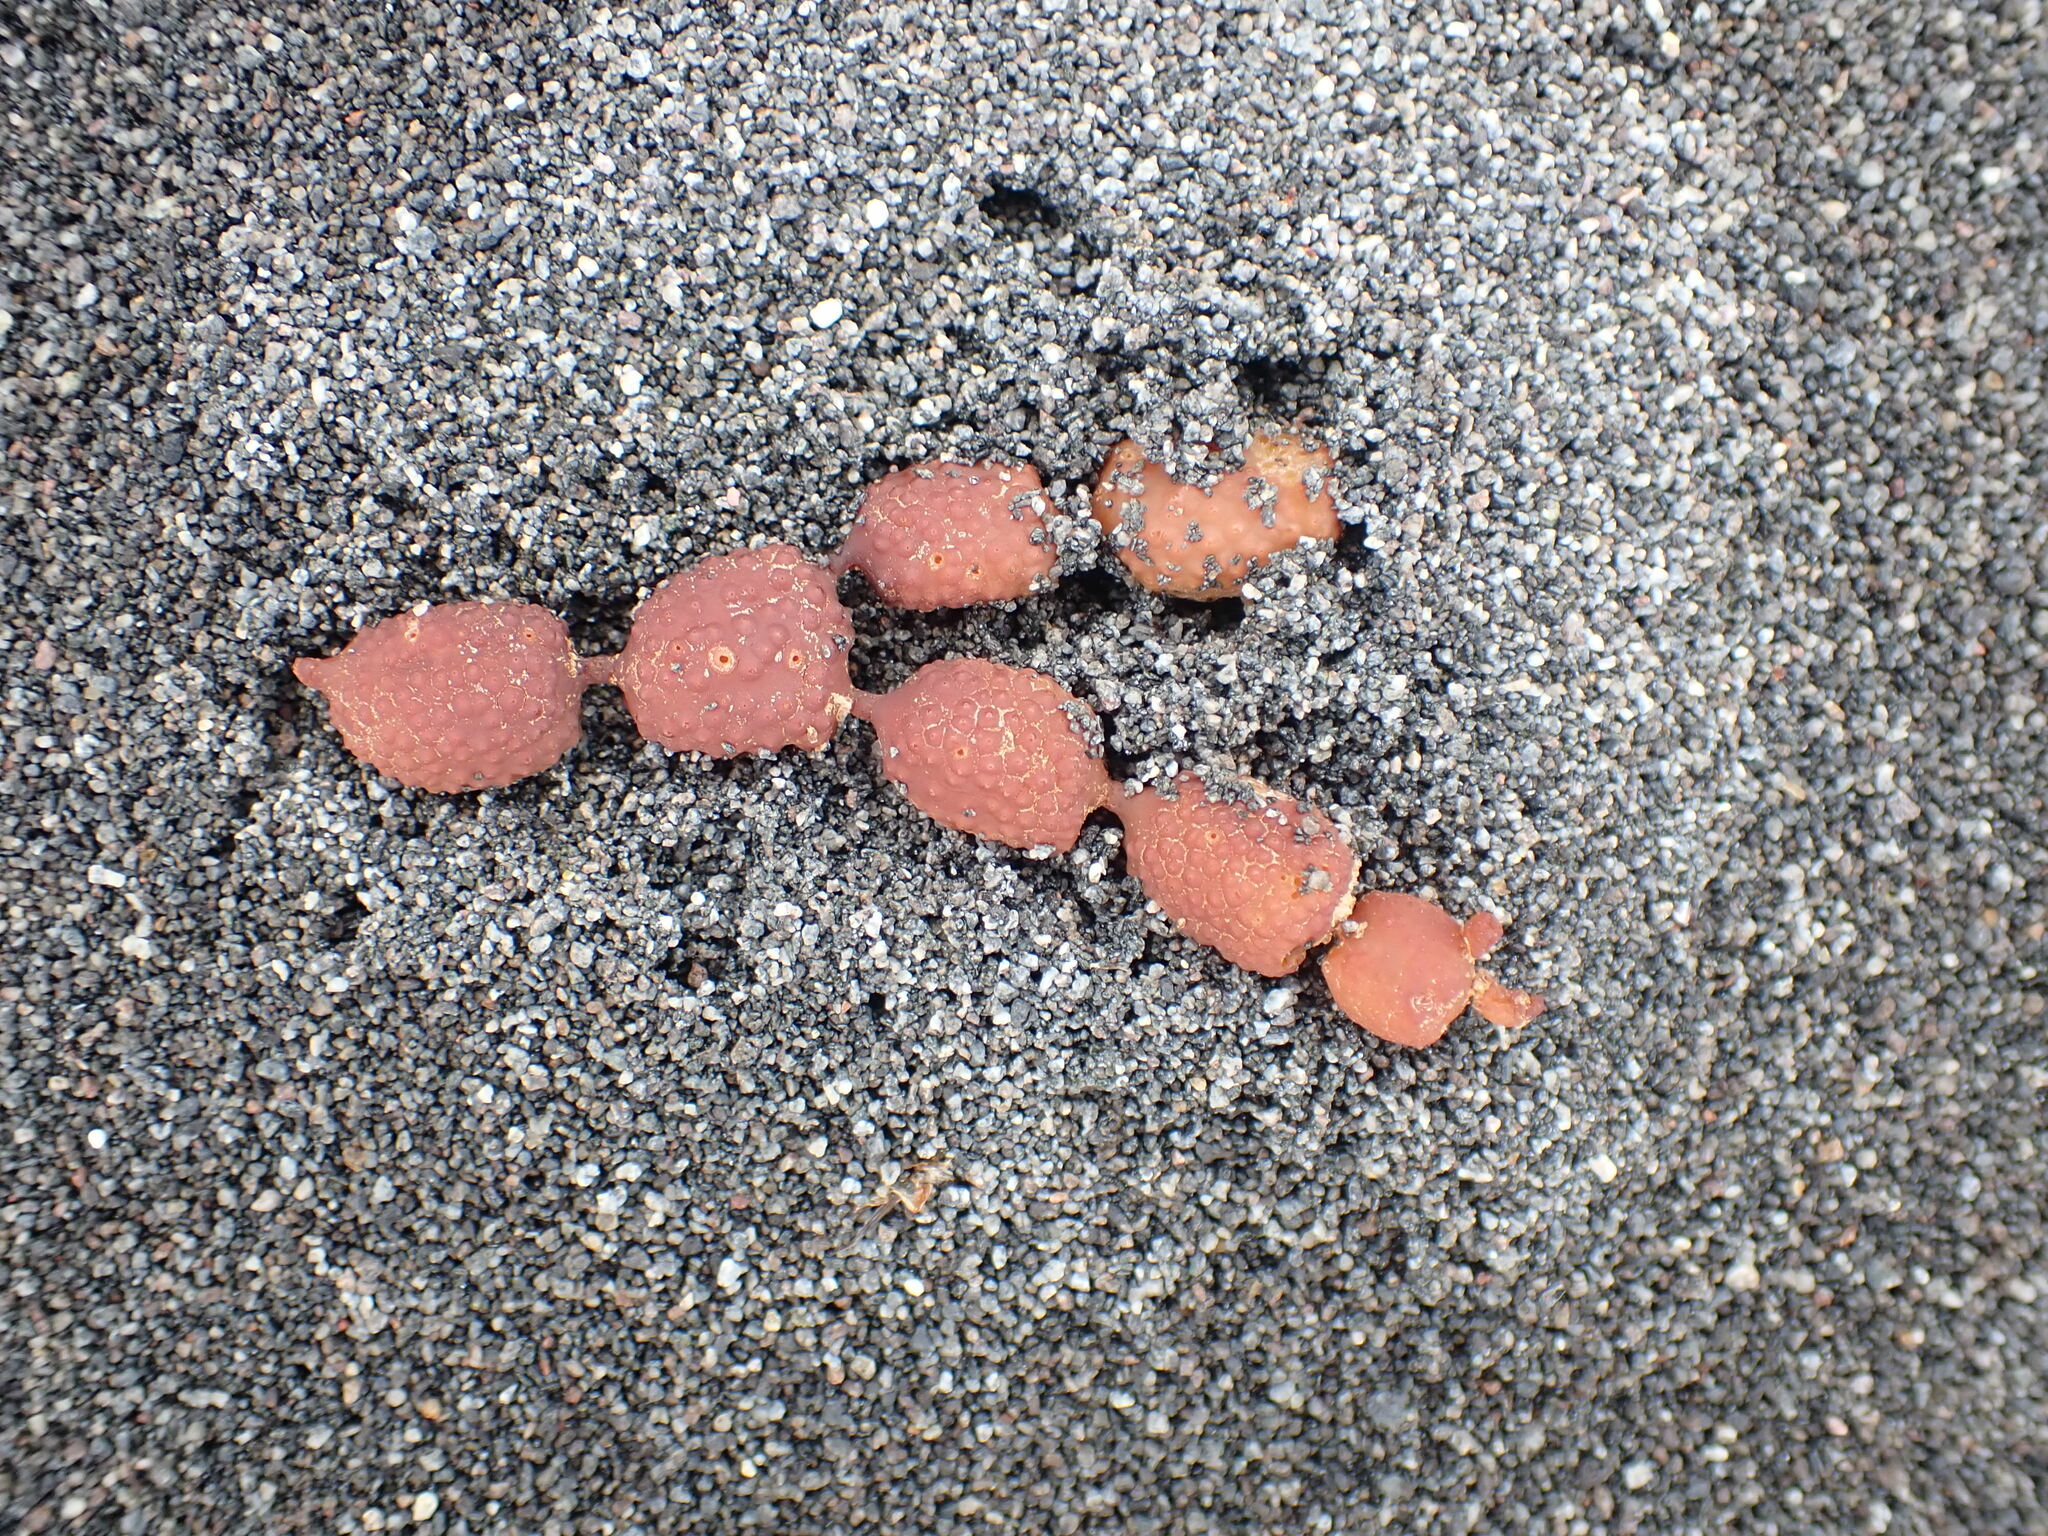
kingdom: Chromista
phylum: Ochrophyta
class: Phaeophyceae
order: Fucales
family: Hormosiraceae
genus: Hormosira
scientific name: Hormosira banksii
